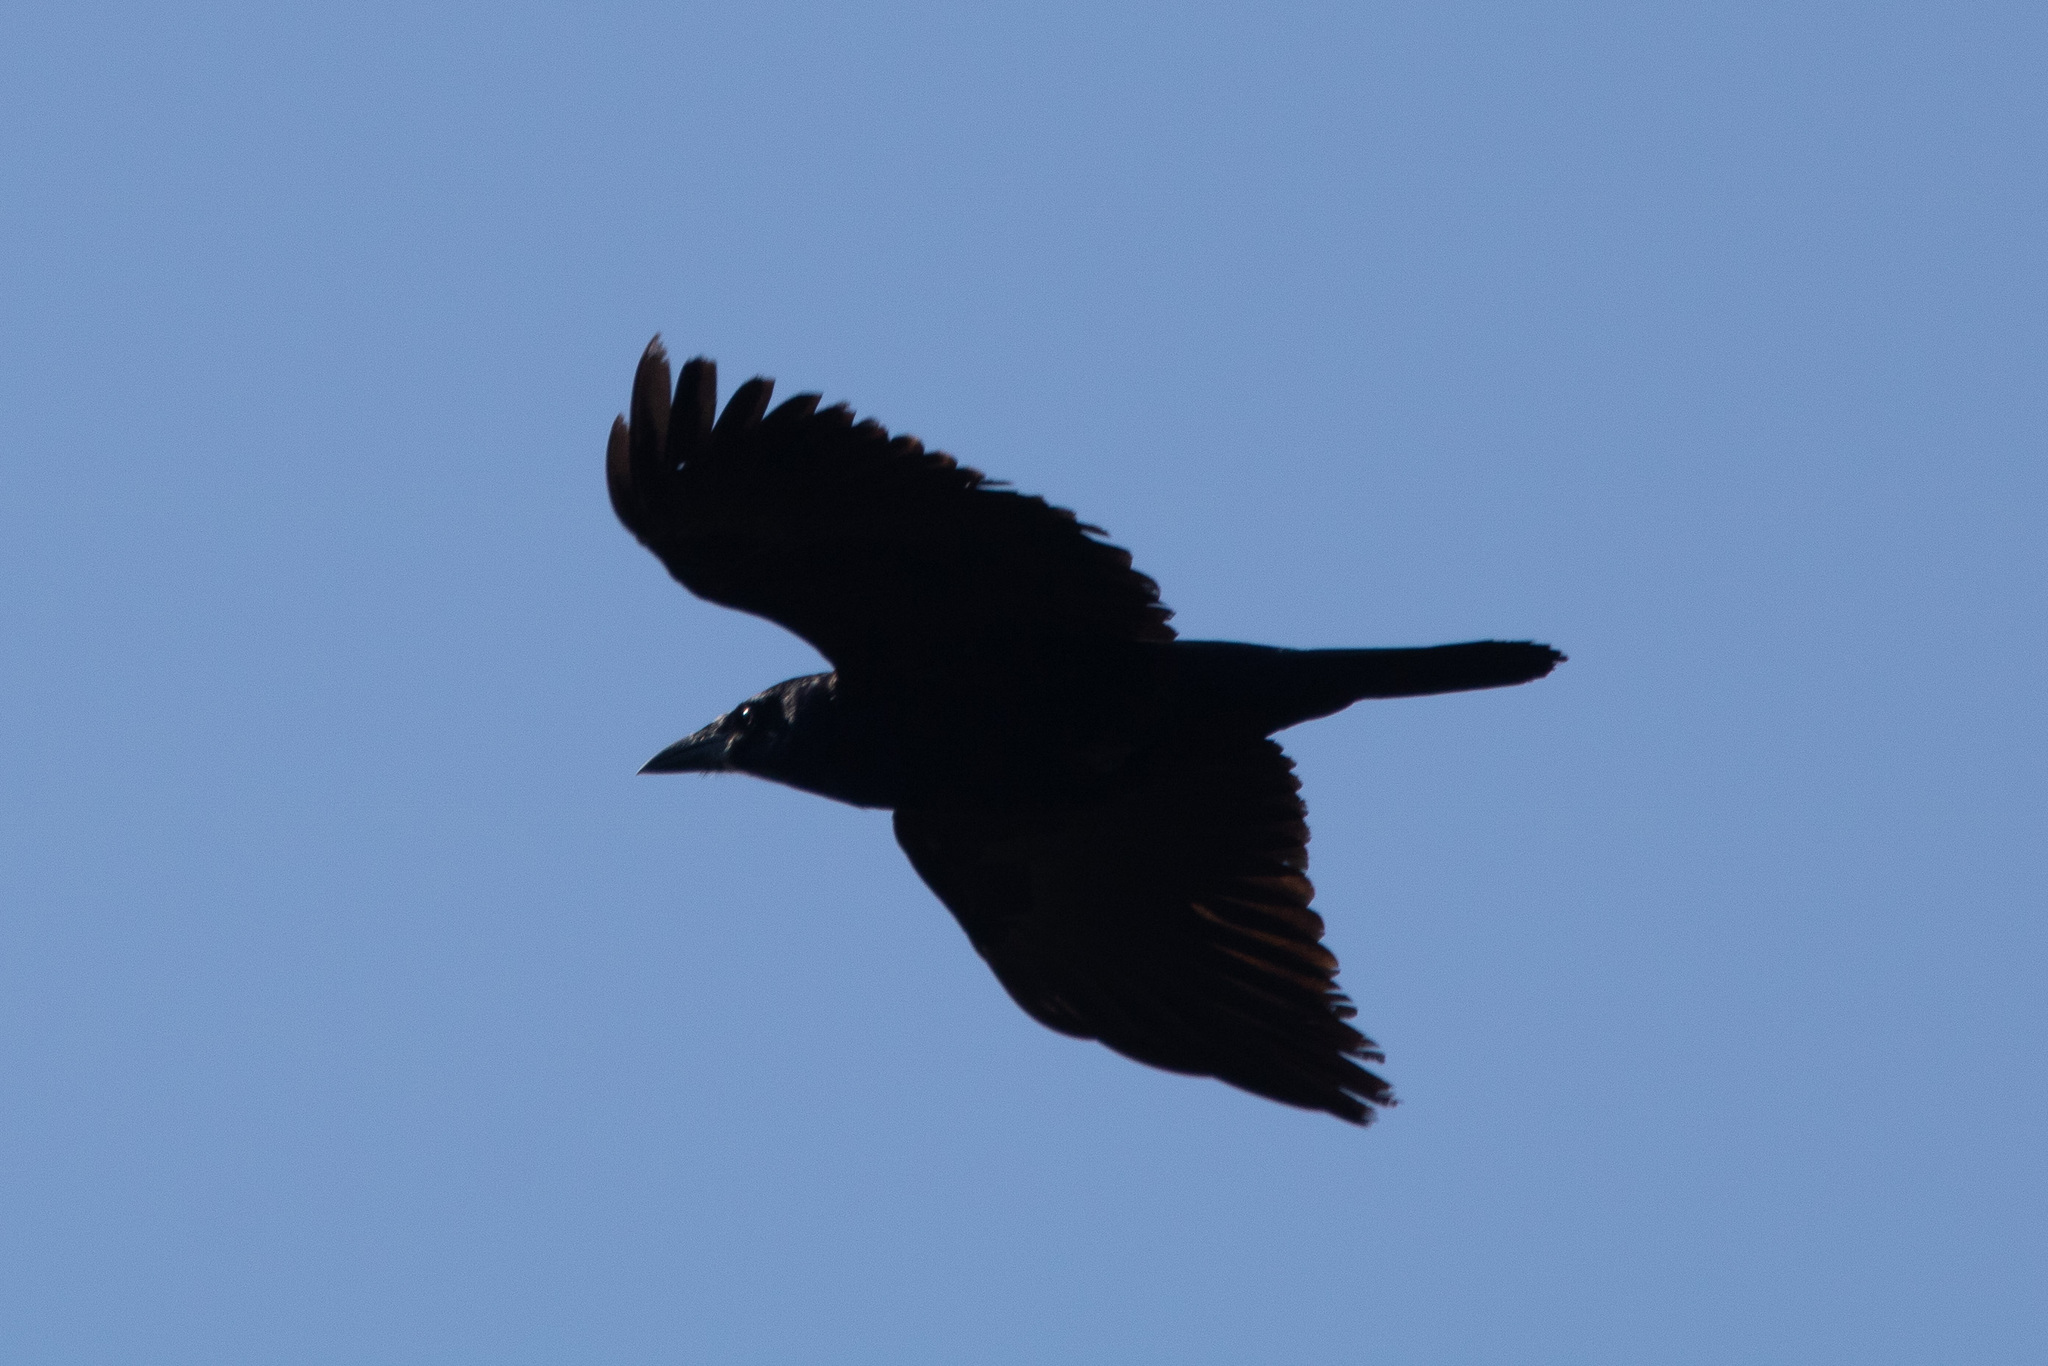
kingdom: Animalia
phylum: Chordata
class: Aves
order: Passeriformes
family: Corvidae
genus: Corvus
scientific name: Corvus corax
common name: Common raven
